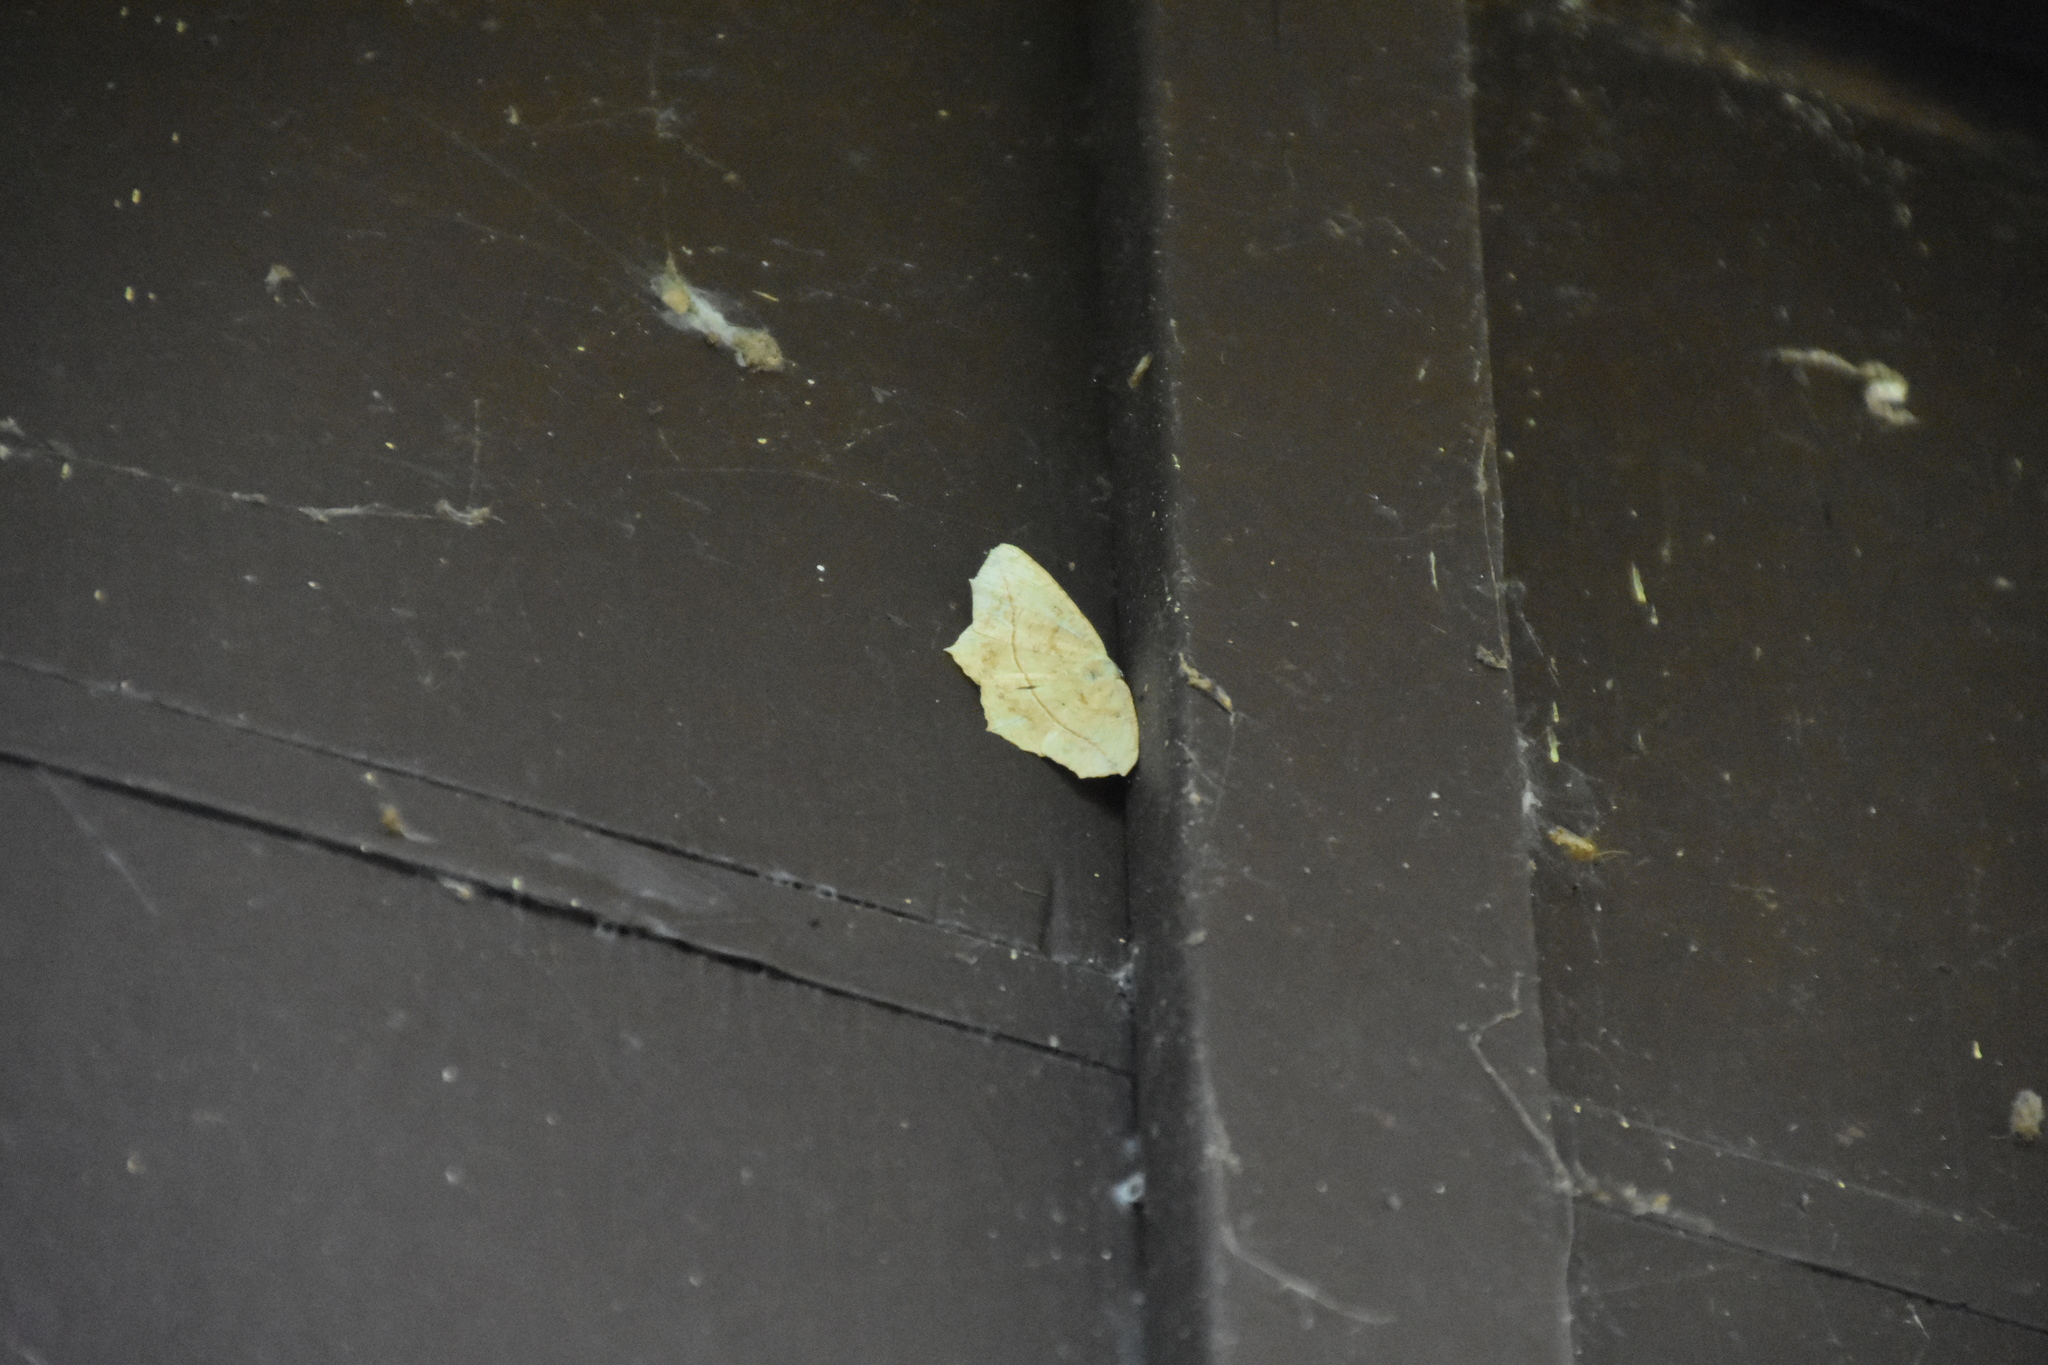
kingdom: Animalia
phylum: Arthropoda
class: Insecta
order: Lepidoptera
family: Geometridae
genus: Prochoerodes
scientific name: Prochoerodes lineola
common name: Large maple spanworm
